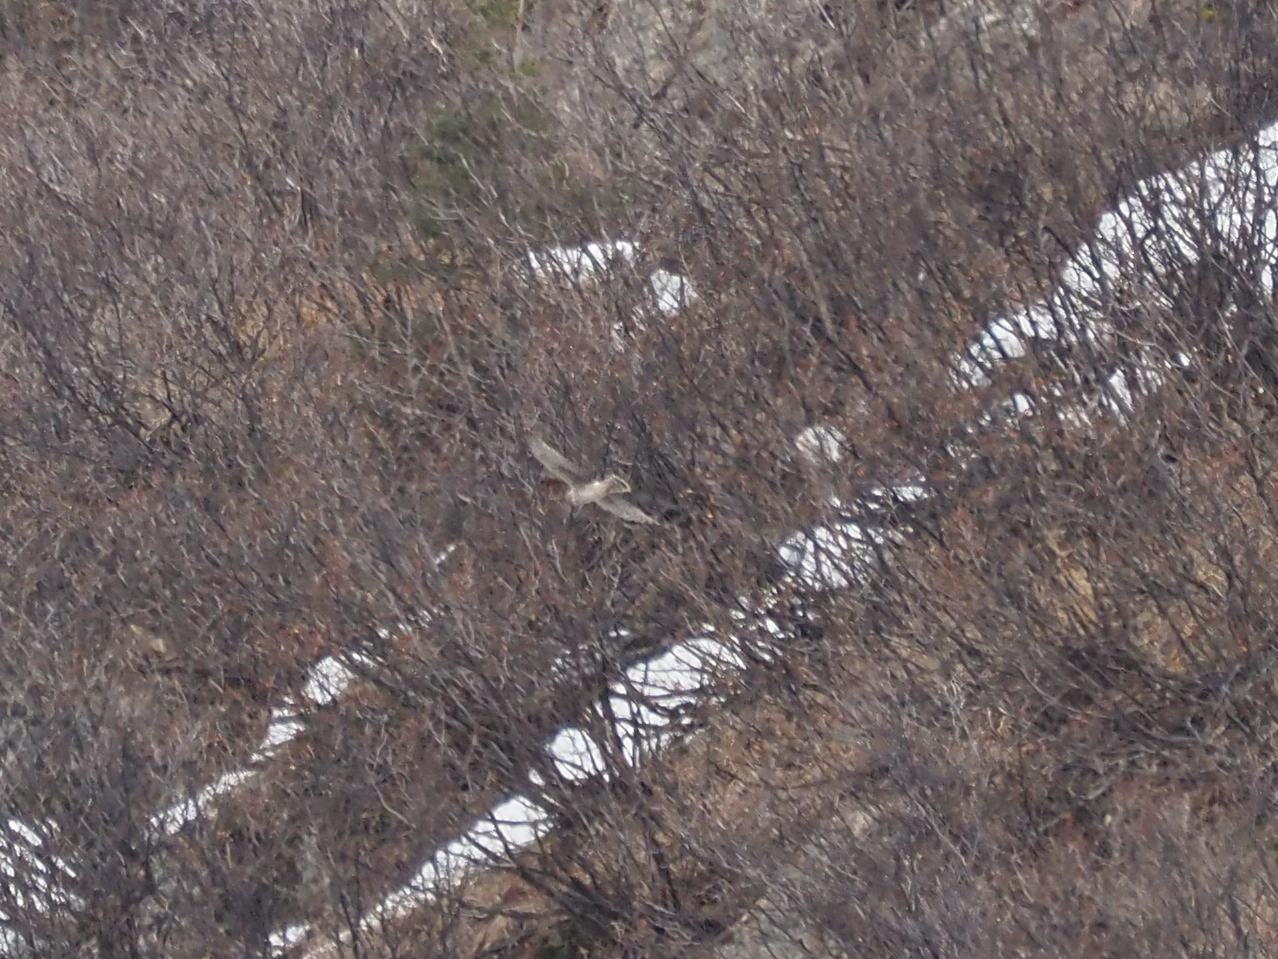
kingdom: Animalia
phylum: Chordata
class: Aves
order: Accipitriformes
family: Accipitridae
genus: Circus
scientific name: Circus cyaneus
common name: Hen harrier
